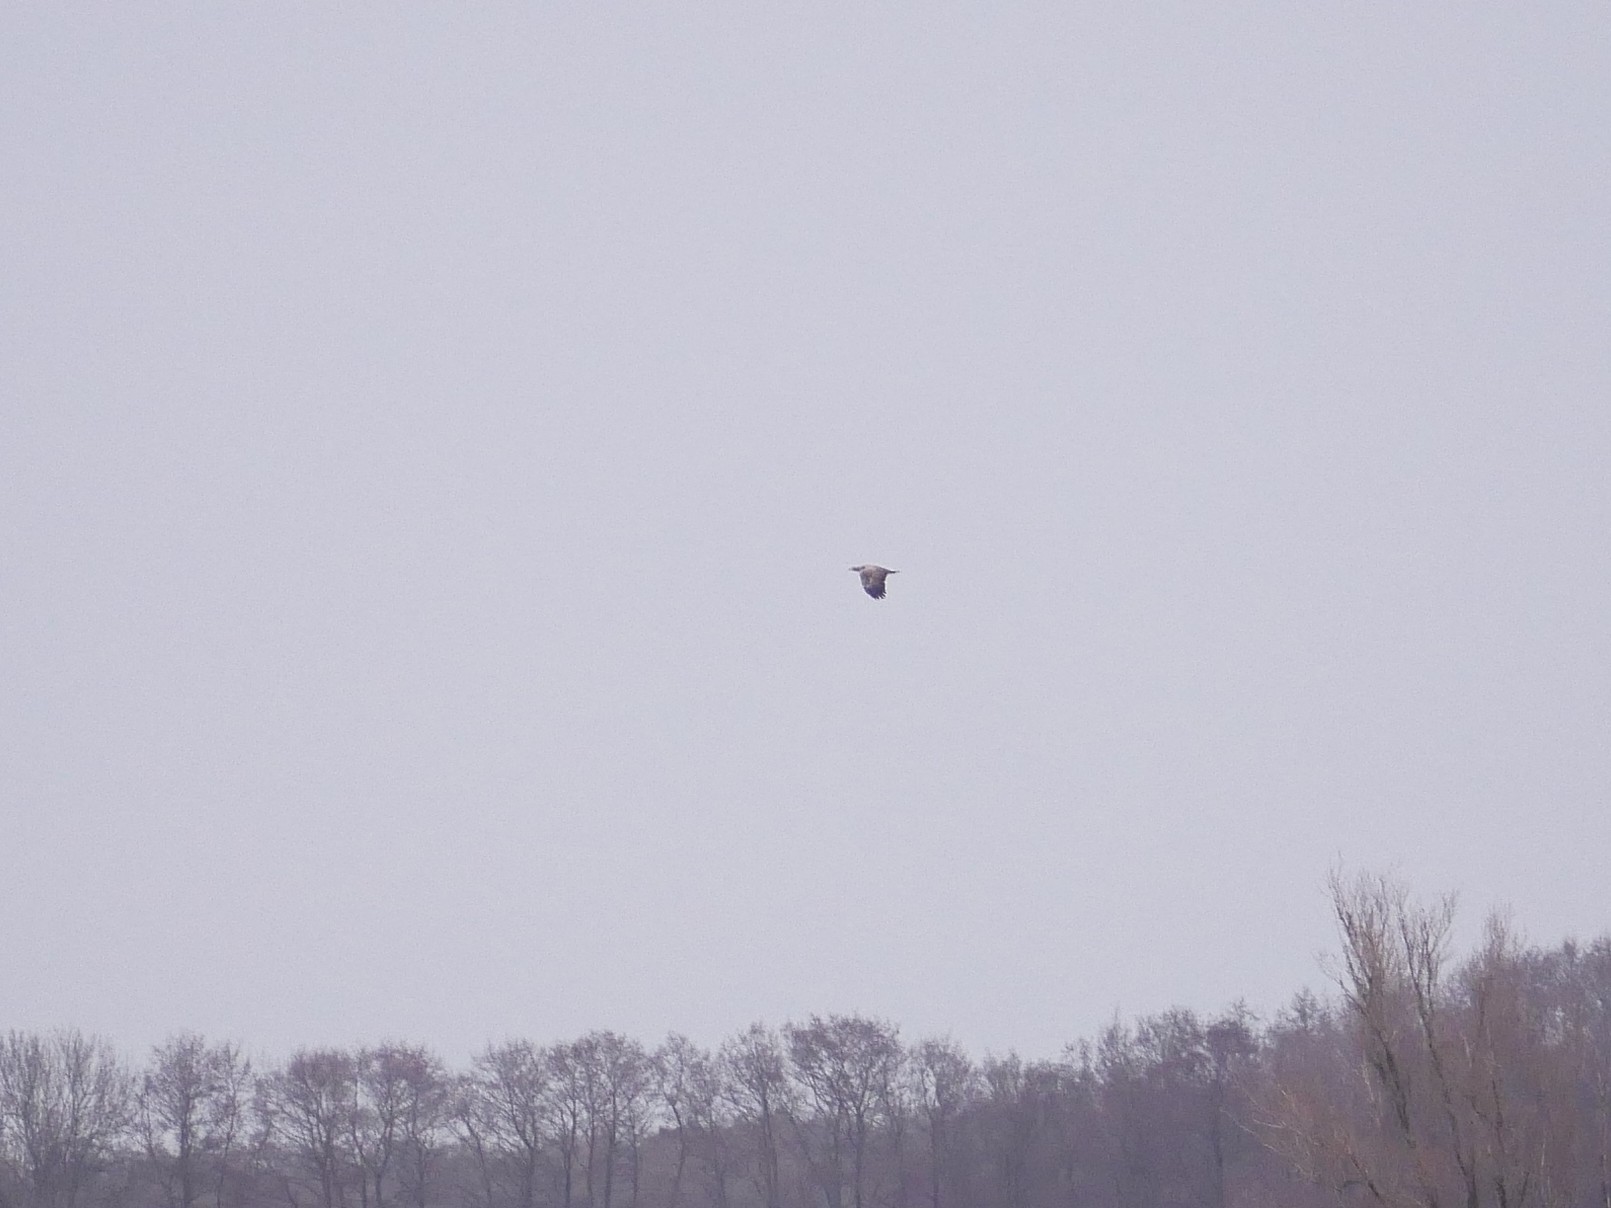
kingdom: Animalia
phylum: Chordata
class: Aves
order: Accipitriformes
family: Accipitridae
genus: Haliaeetus
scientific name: Haliaeetus albicilla
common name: White-tailed eagle
